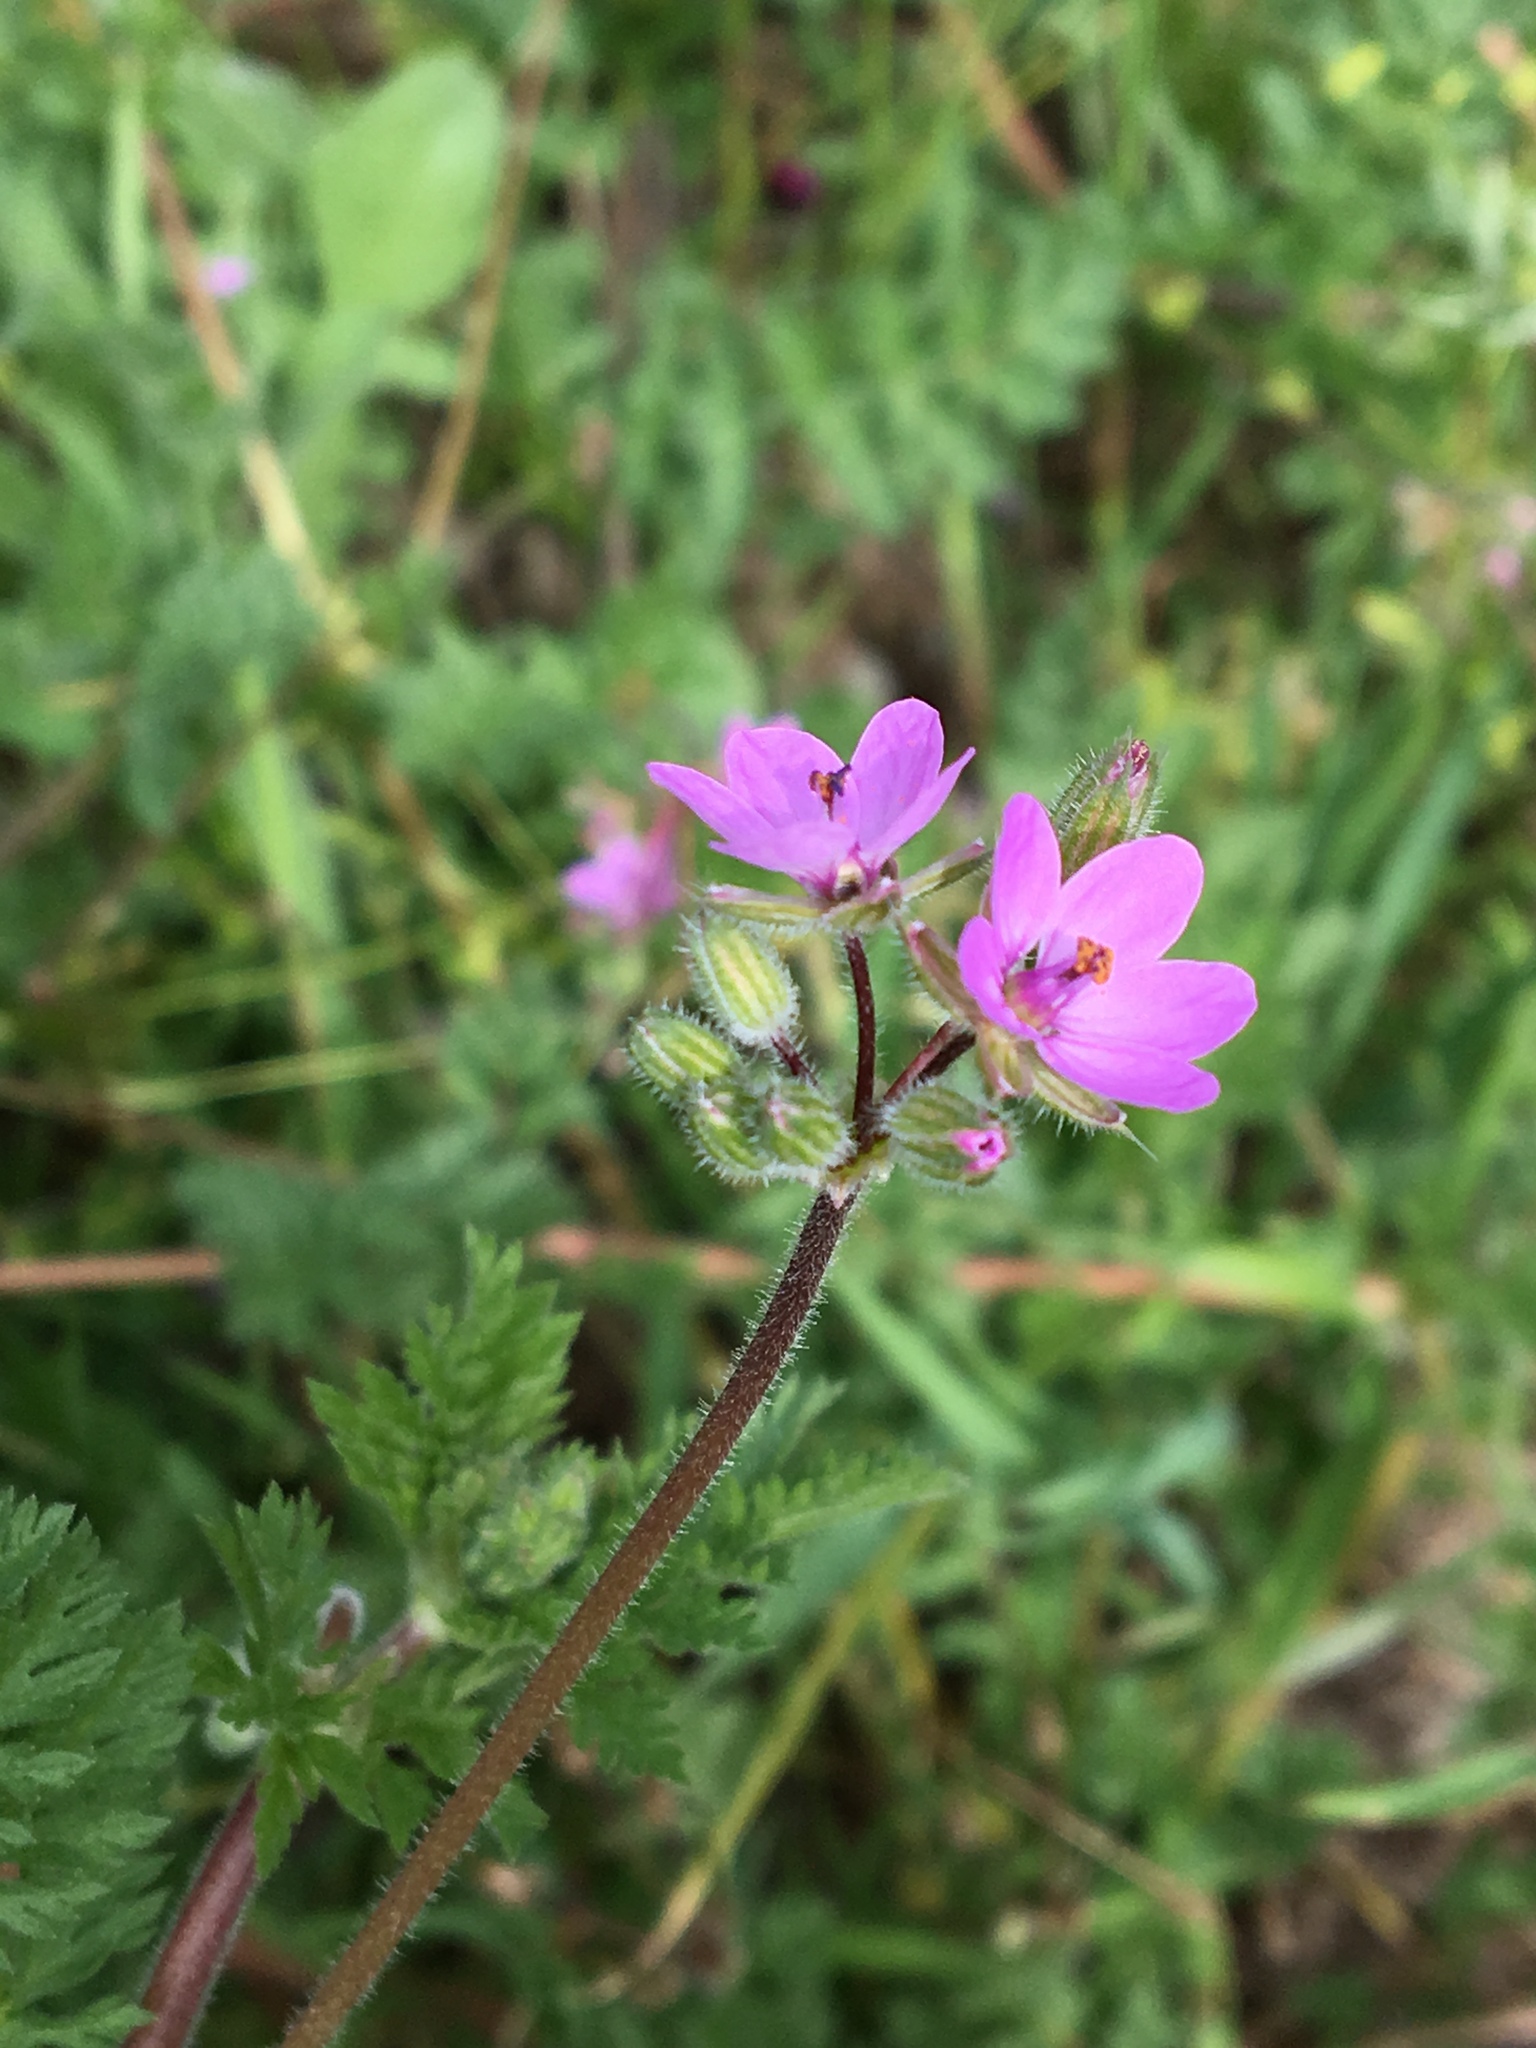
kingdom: Plantae
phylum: Tracheophyta
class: Magnoliopsida
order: Geraniales
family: Geraniaceae
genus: Erodium
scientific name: Erodium cicutarium
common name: Common stork's-bill
